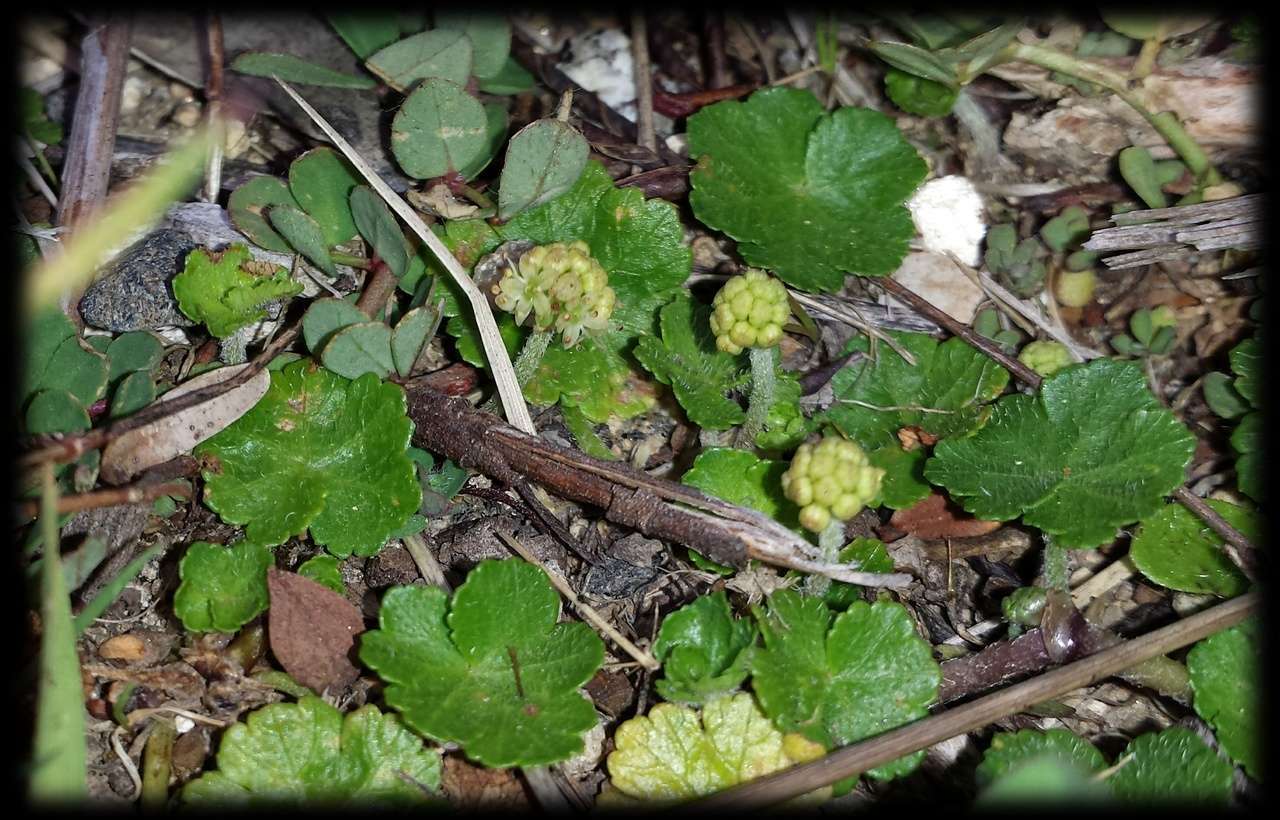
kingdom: Plantae
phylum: Tracheophyta
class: Magnoliopsida
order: Apiales
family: Araliaceae
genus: Hydrocotyle
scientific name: Hydrocotyle algida
